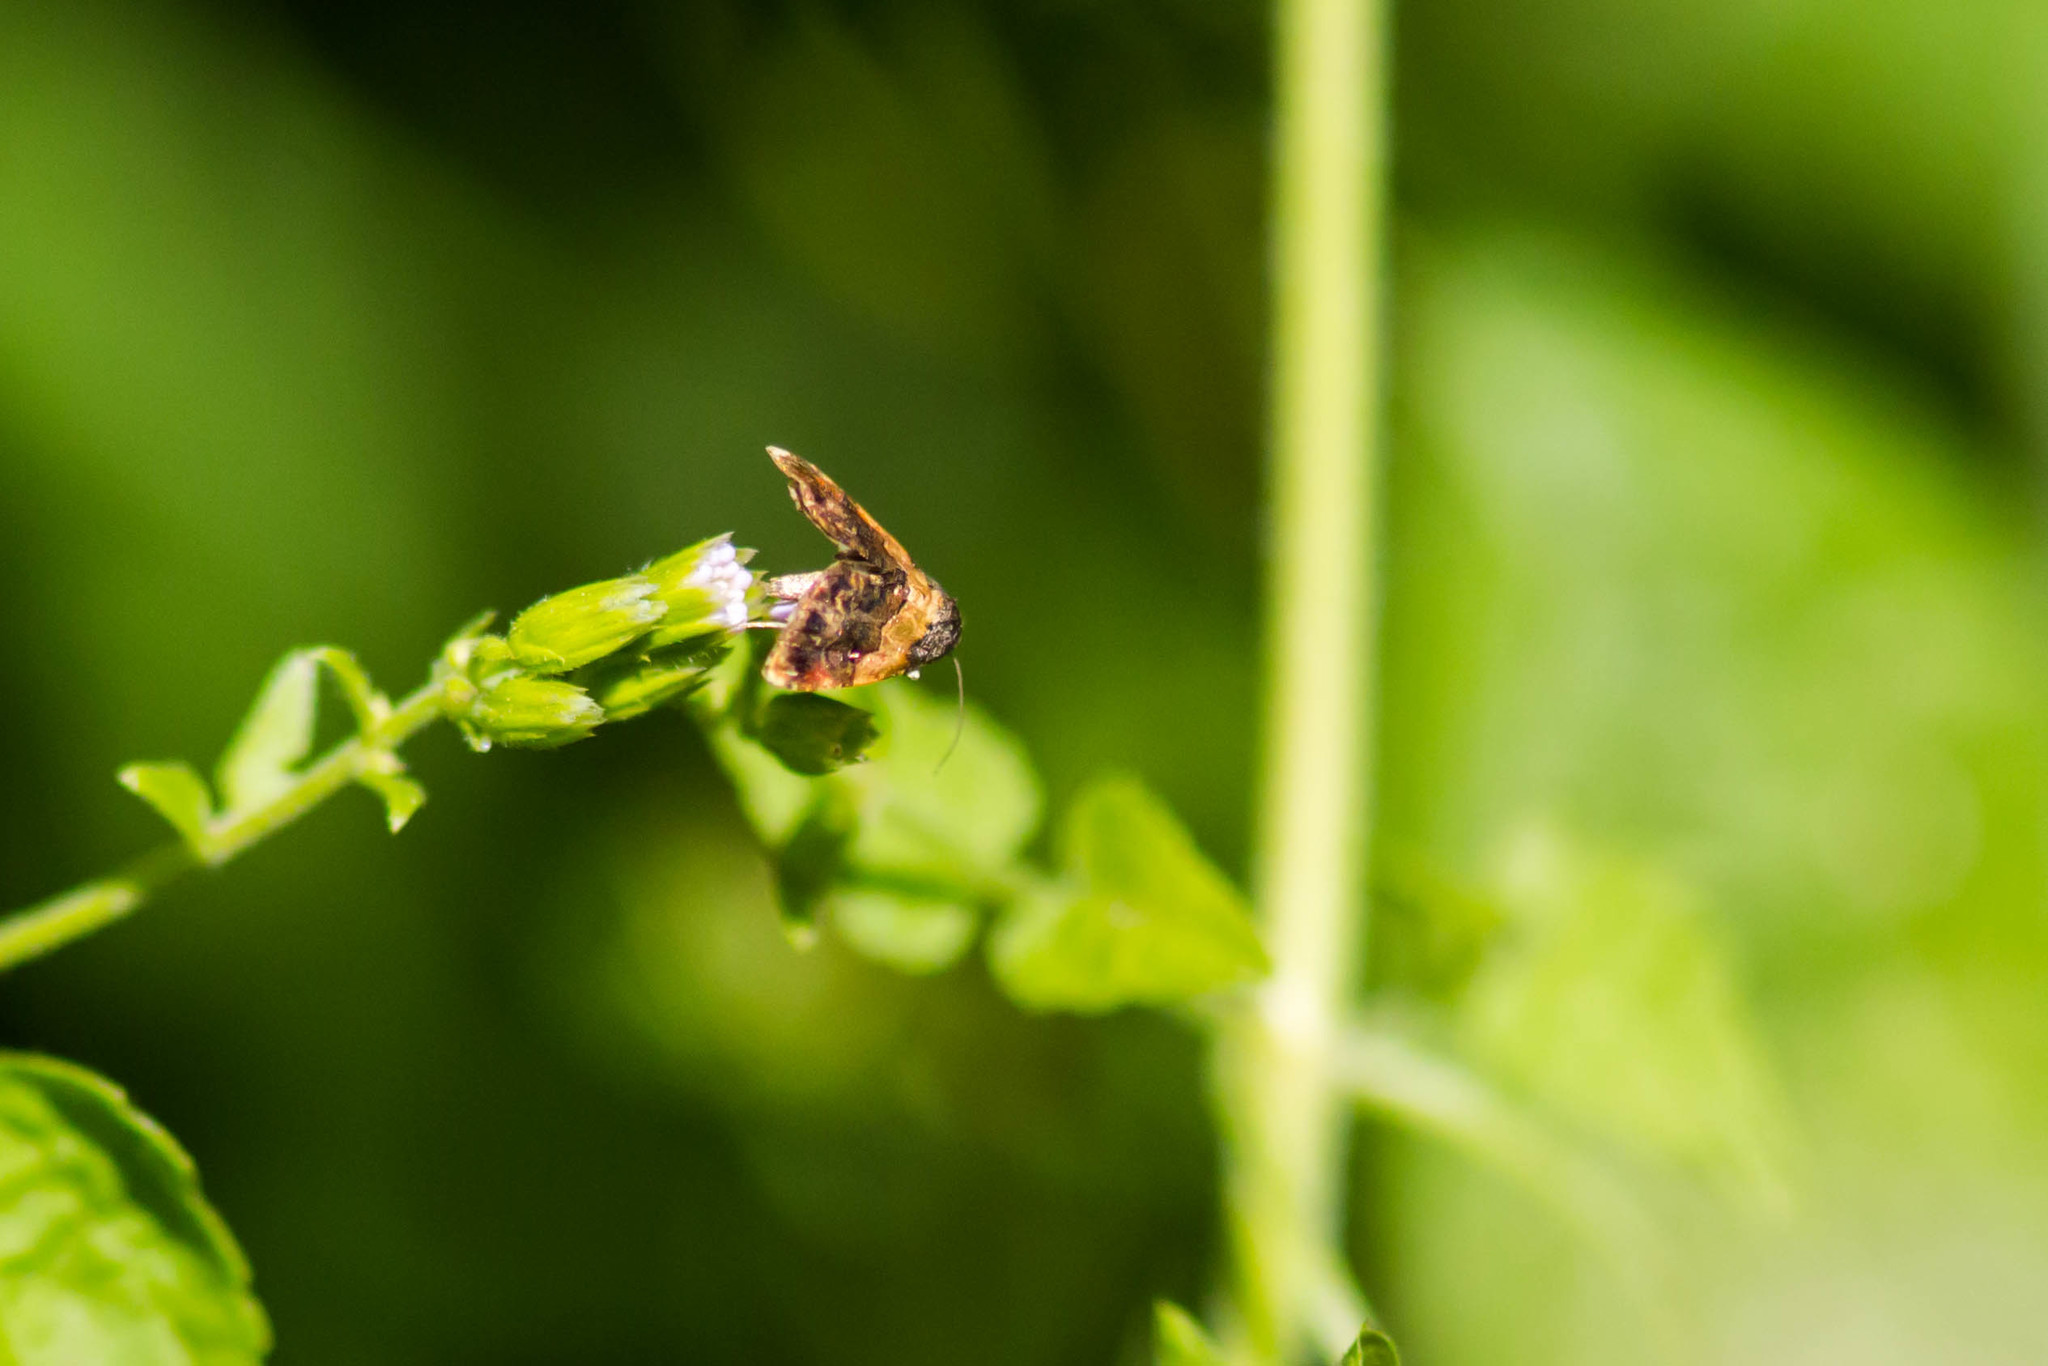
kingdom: Animalia
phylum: Arthropoda
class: Insecta
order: Lepidoptera
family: Noctuidae
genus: Tripudia
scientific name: Tripudia flavofasciata
